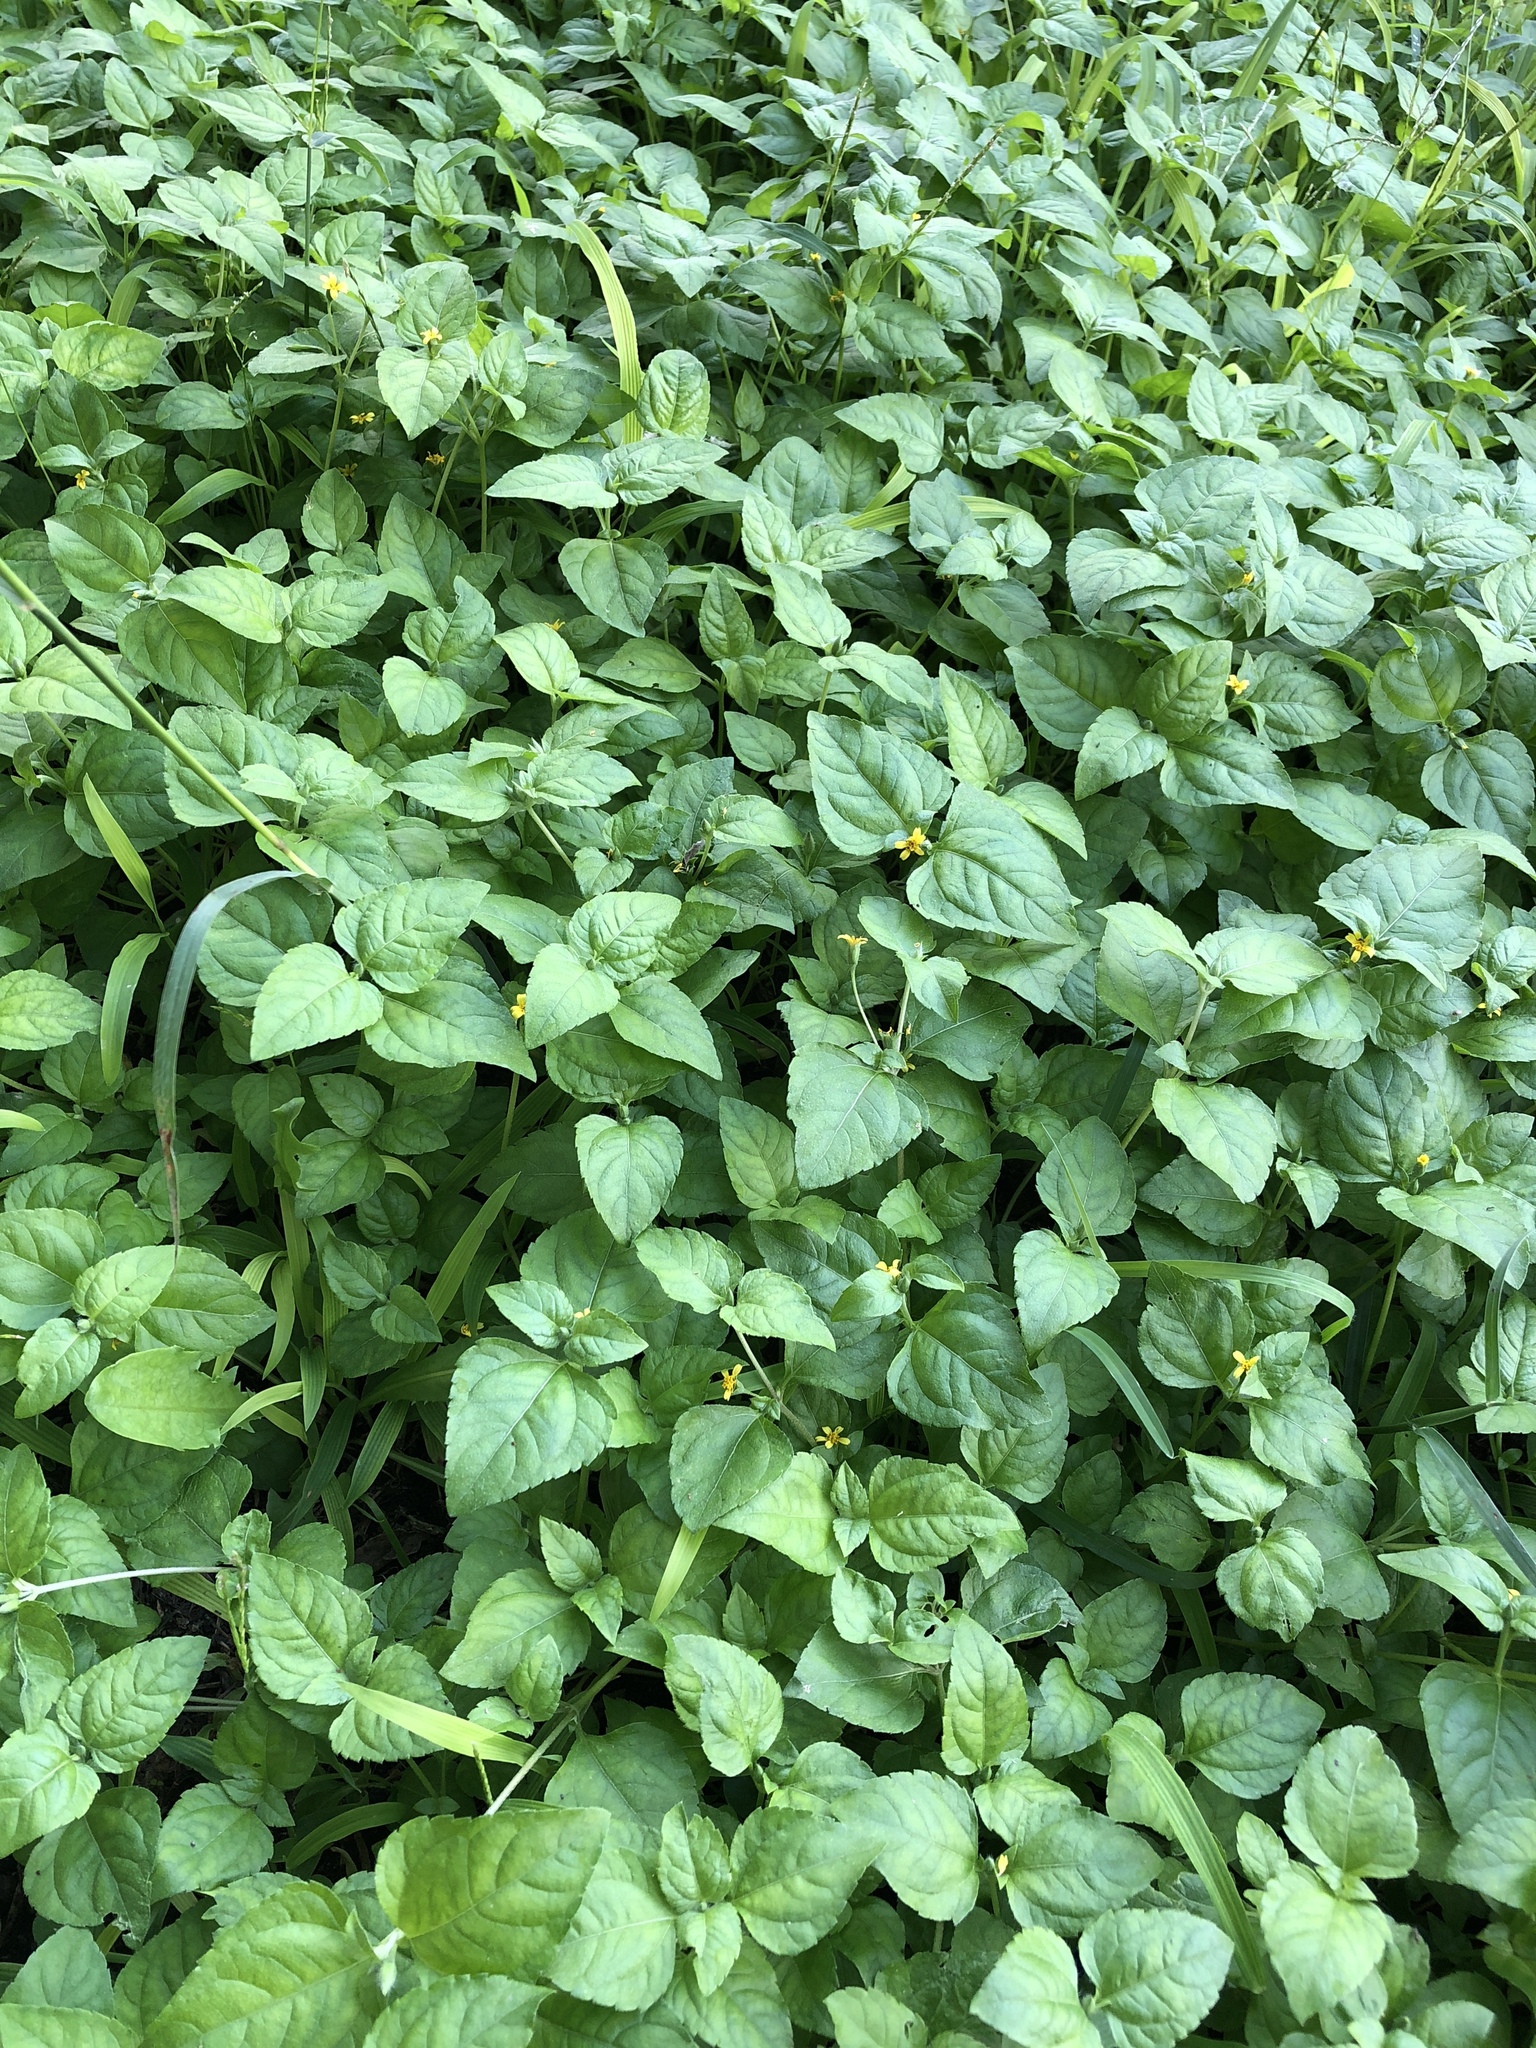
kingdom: Plantae
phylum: Tracheophyta
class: Magnoliopsida
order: Asterales
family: Asteraceae
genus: Calyptocarpus
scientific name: Calyptocarpus vialis
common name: Straggler daisy
